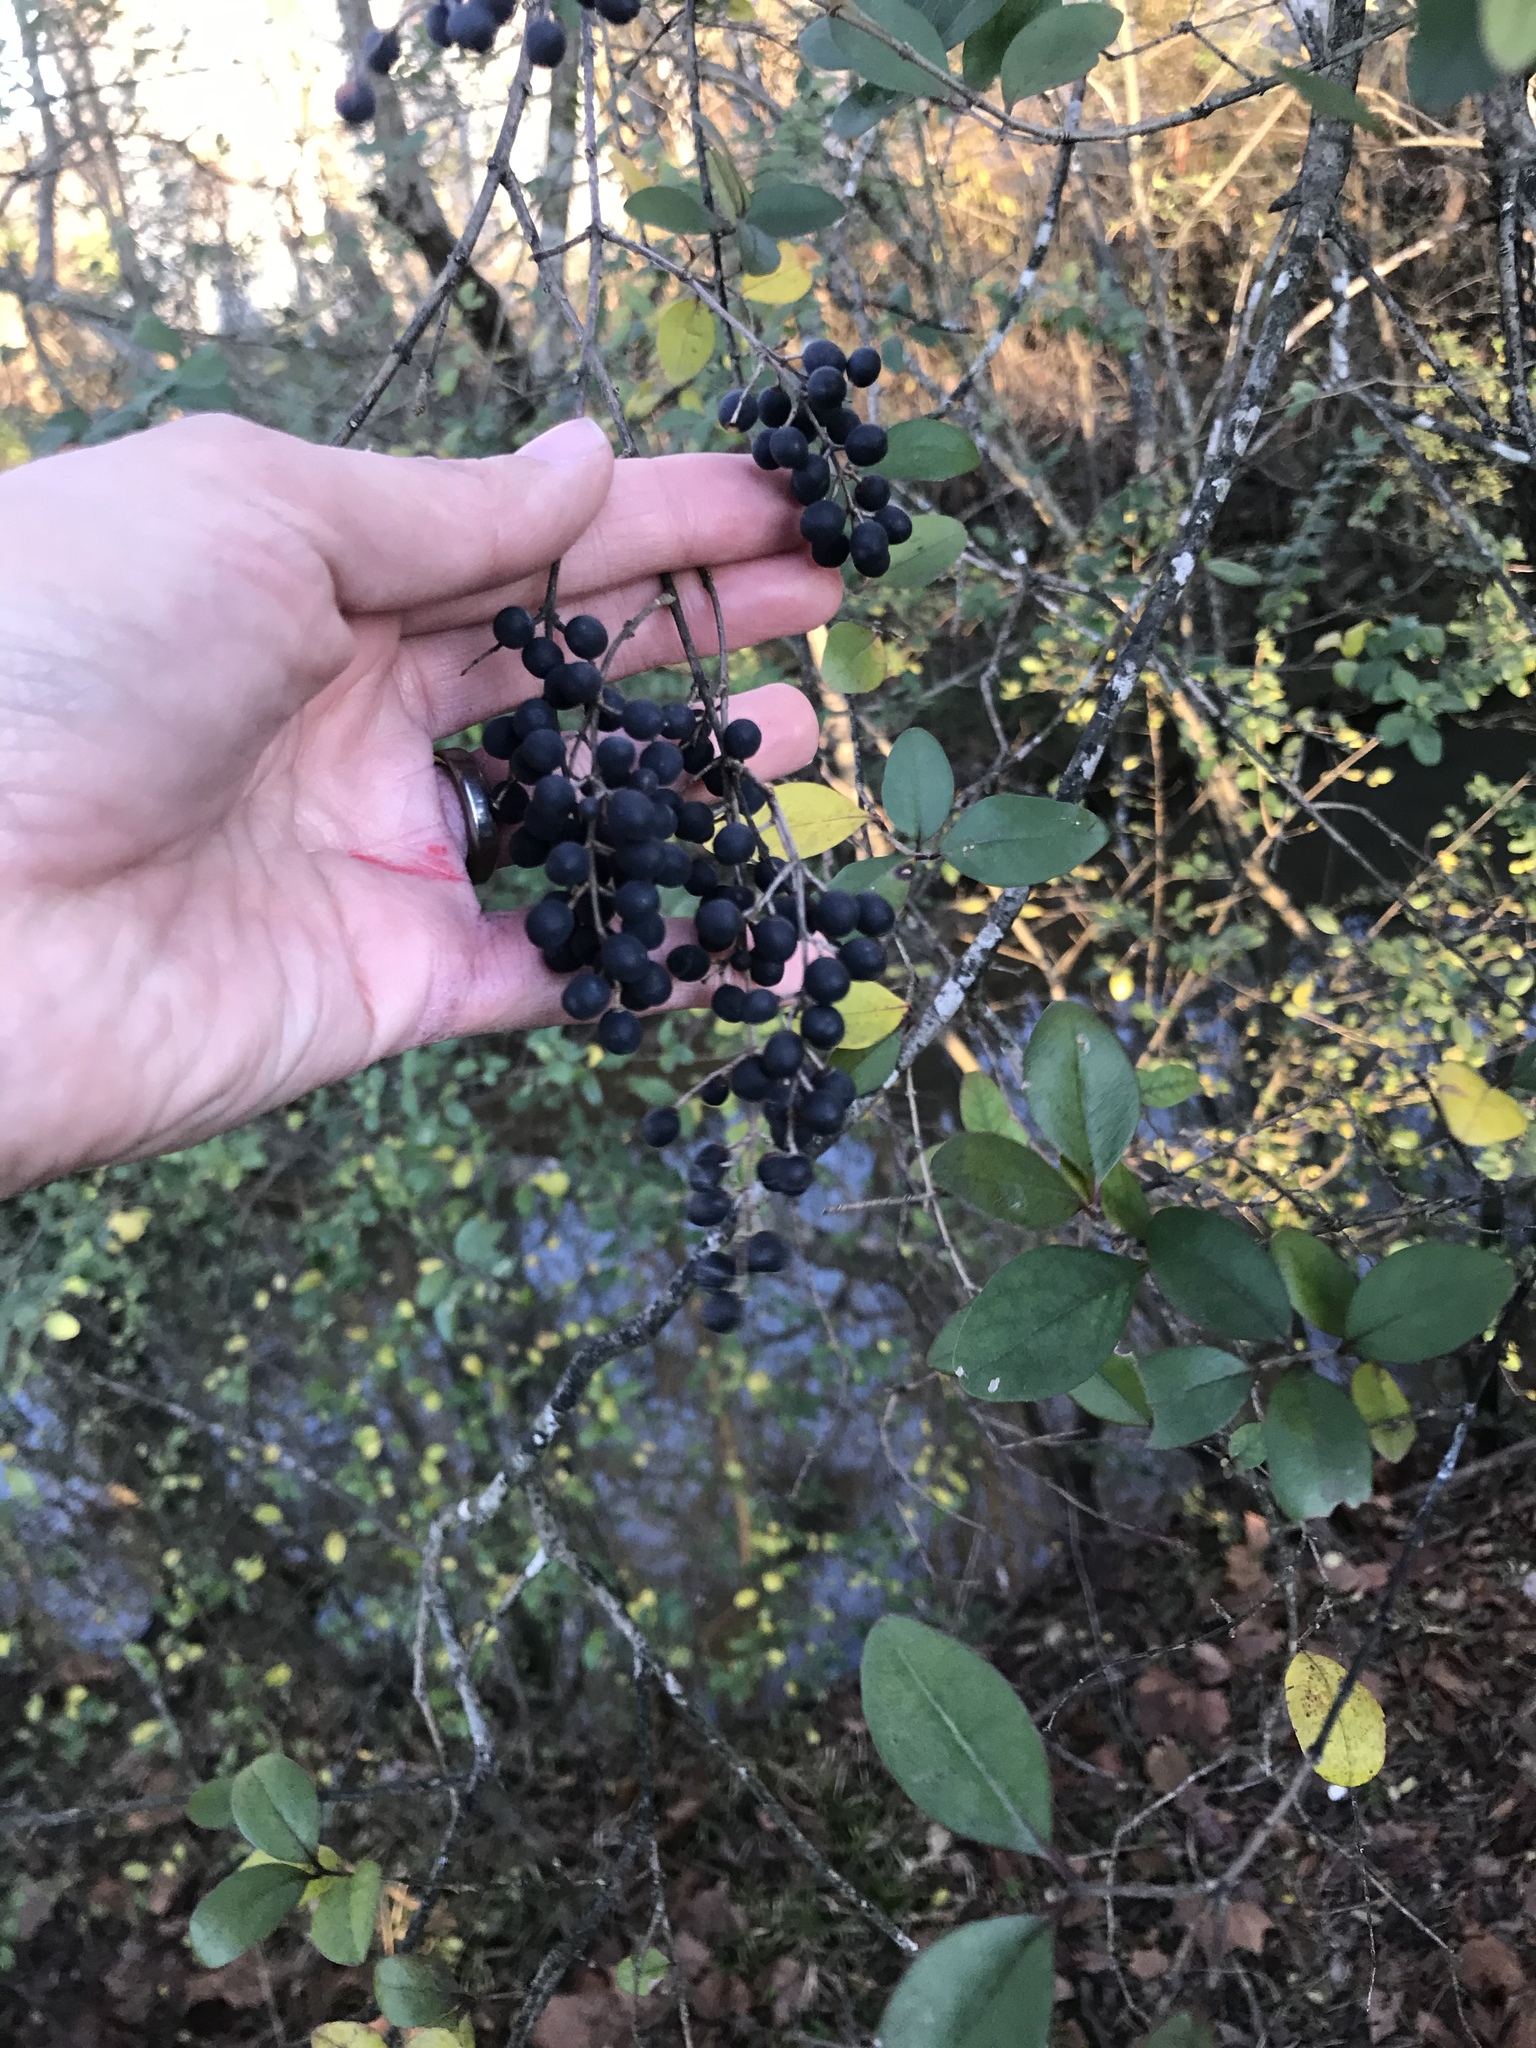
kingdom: Plantae
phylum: Tracheophyta
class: Magnoliopsida
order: Lamiales
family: Oleaceae
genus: Ligustrum
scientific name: Ligustrum sinense
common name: Chinese privet
